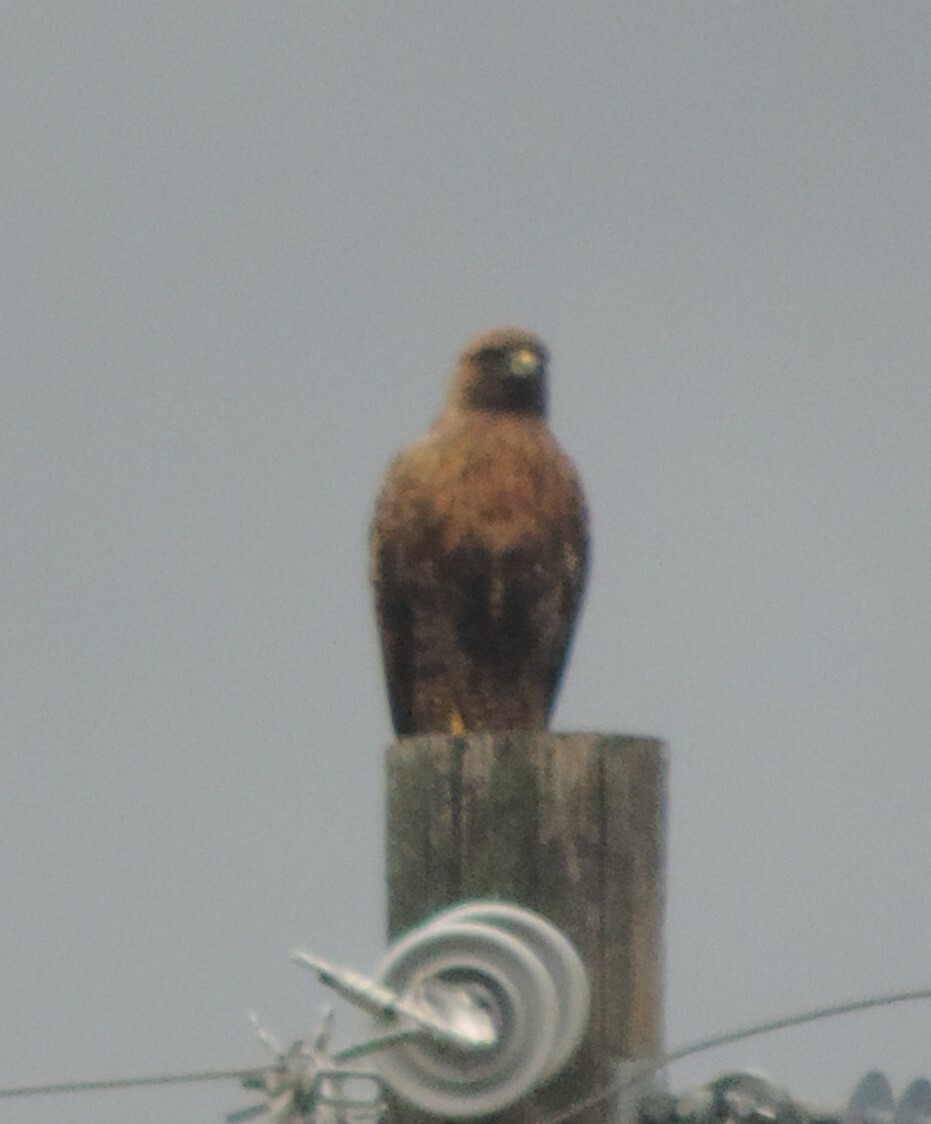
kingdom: Animalia
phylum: Chordata
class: Aves
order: Accipitriformes
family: Accipitridae
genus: Buteo
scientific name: Buteo jamaicensis
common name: Red-tailed hawk
